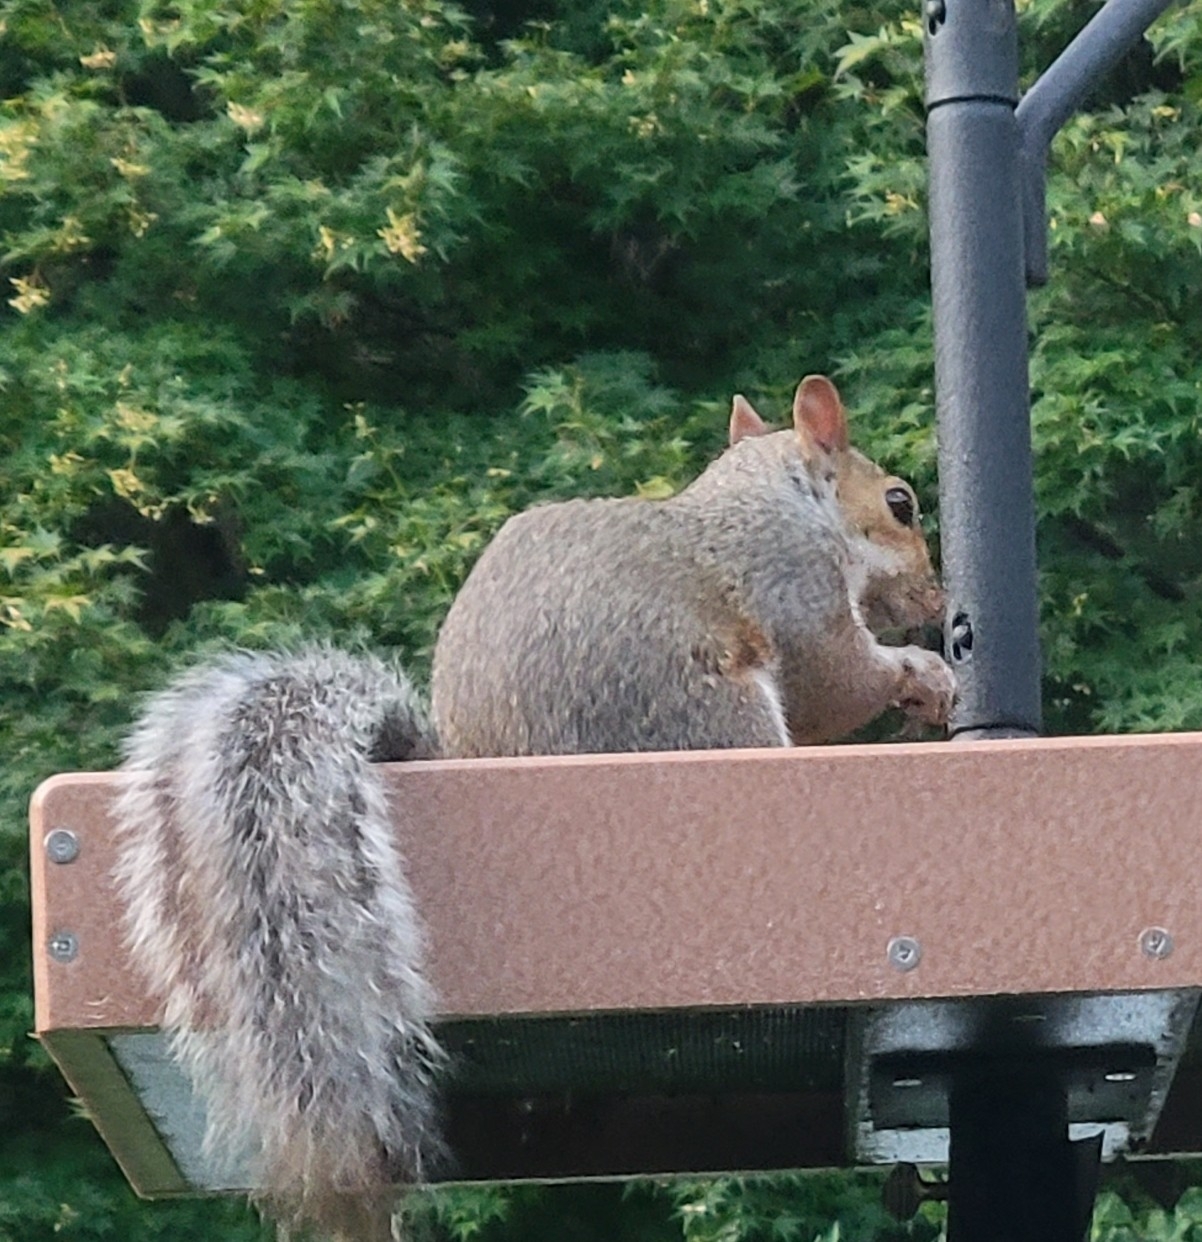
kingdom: Animalia
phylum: Chordata
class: Mammalia
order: Rodentia
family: Sciuridae
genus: Sciurus
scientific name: Sciurus carolinensis
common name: Eastern gray squirrel
